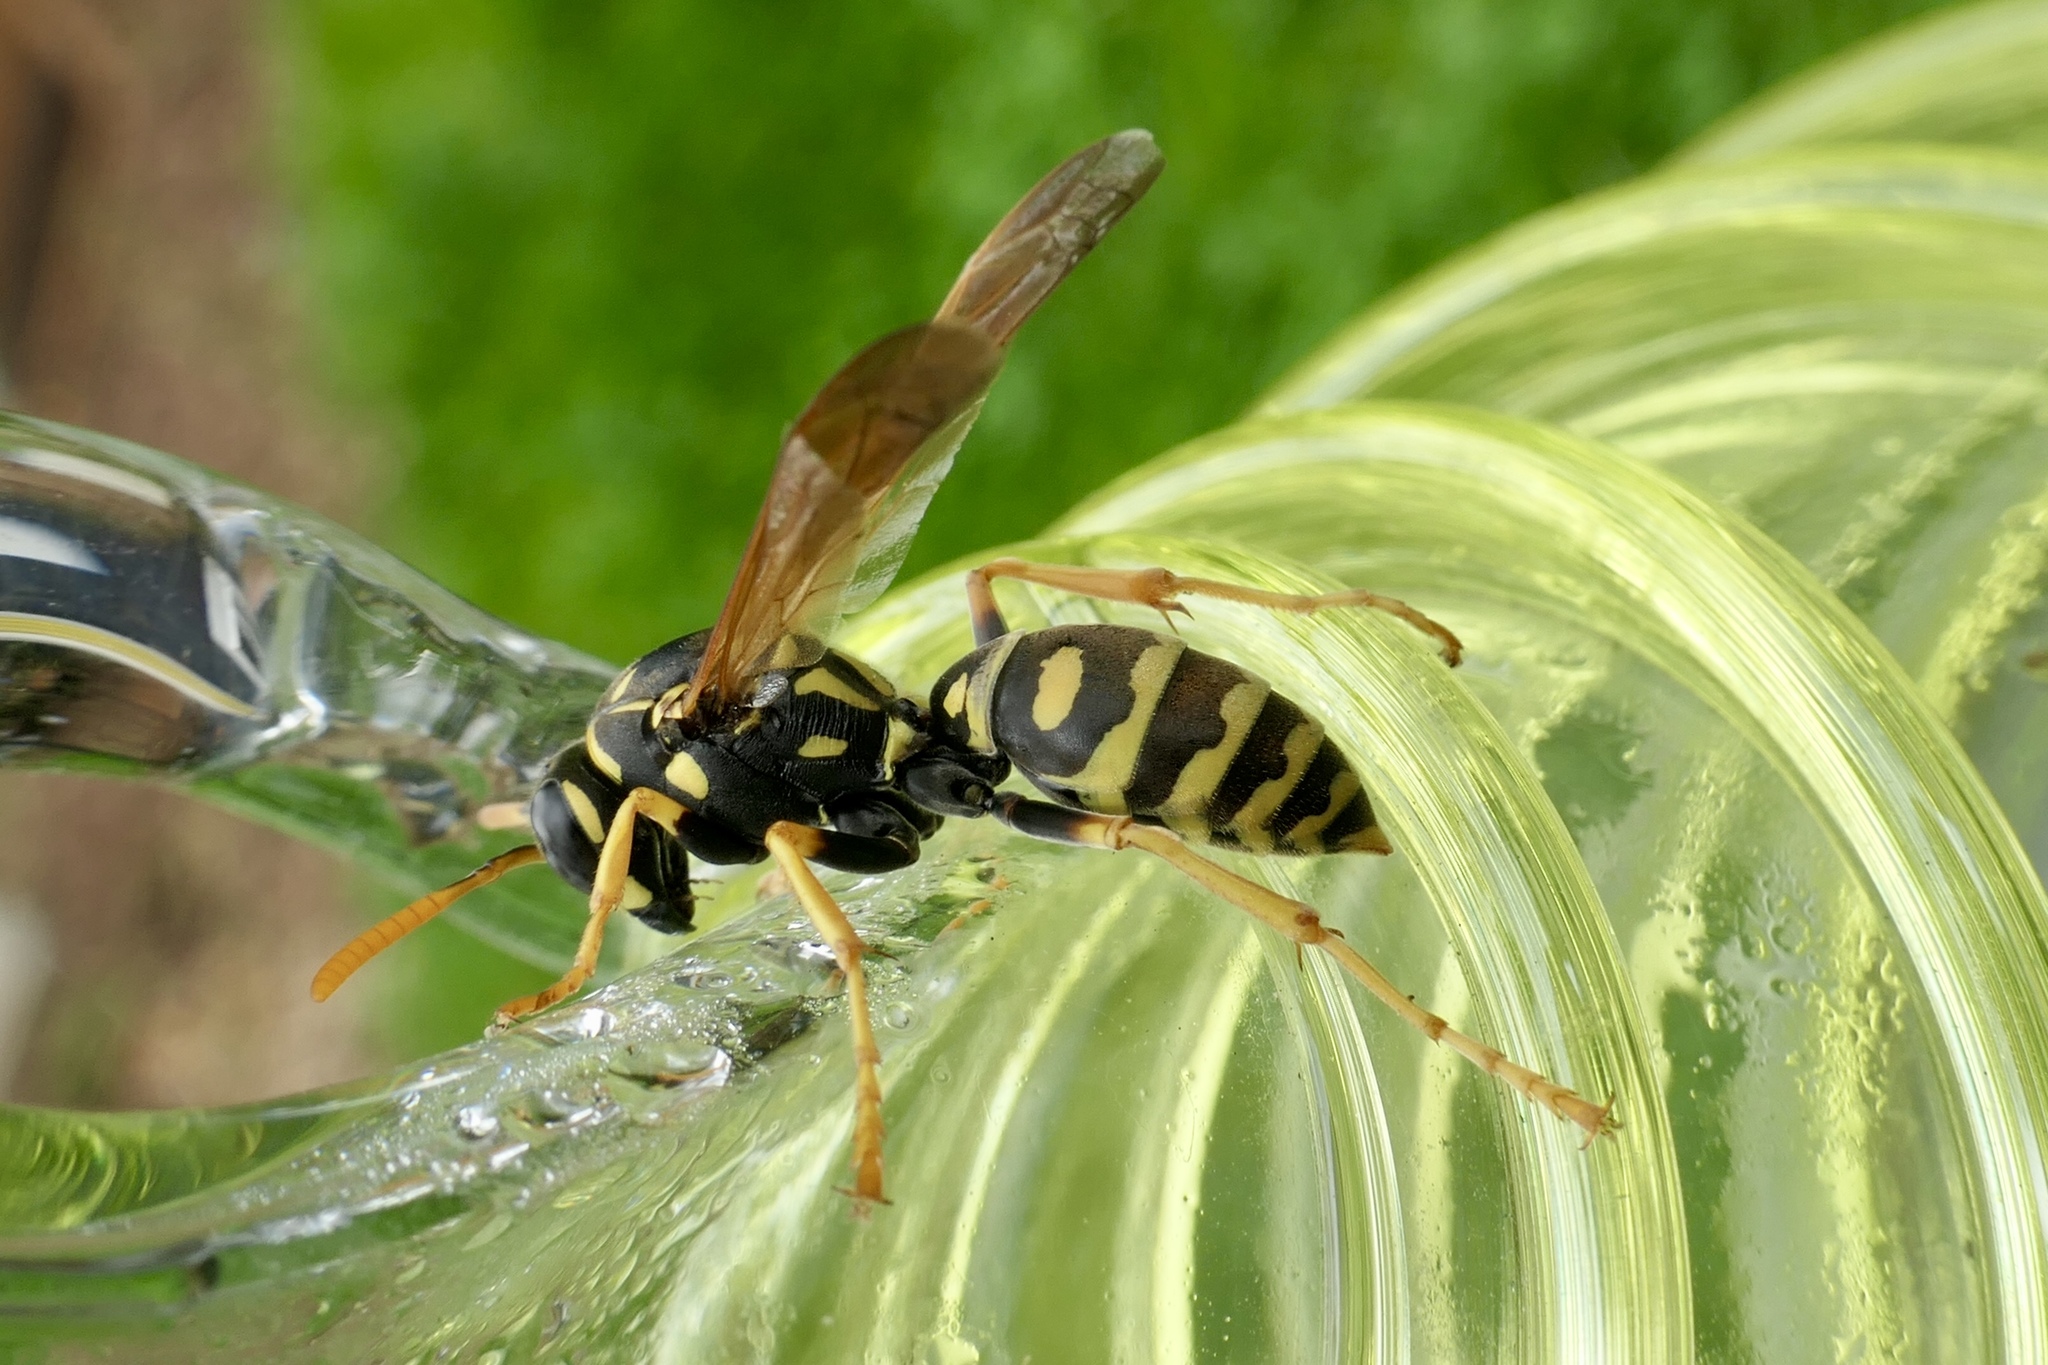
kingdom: Animalia
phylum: Arthropoda
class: Insecta
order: Hymenoptera
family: Eumenidae
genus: Polistes
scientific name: Polistes dominula
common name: Paper wasp
